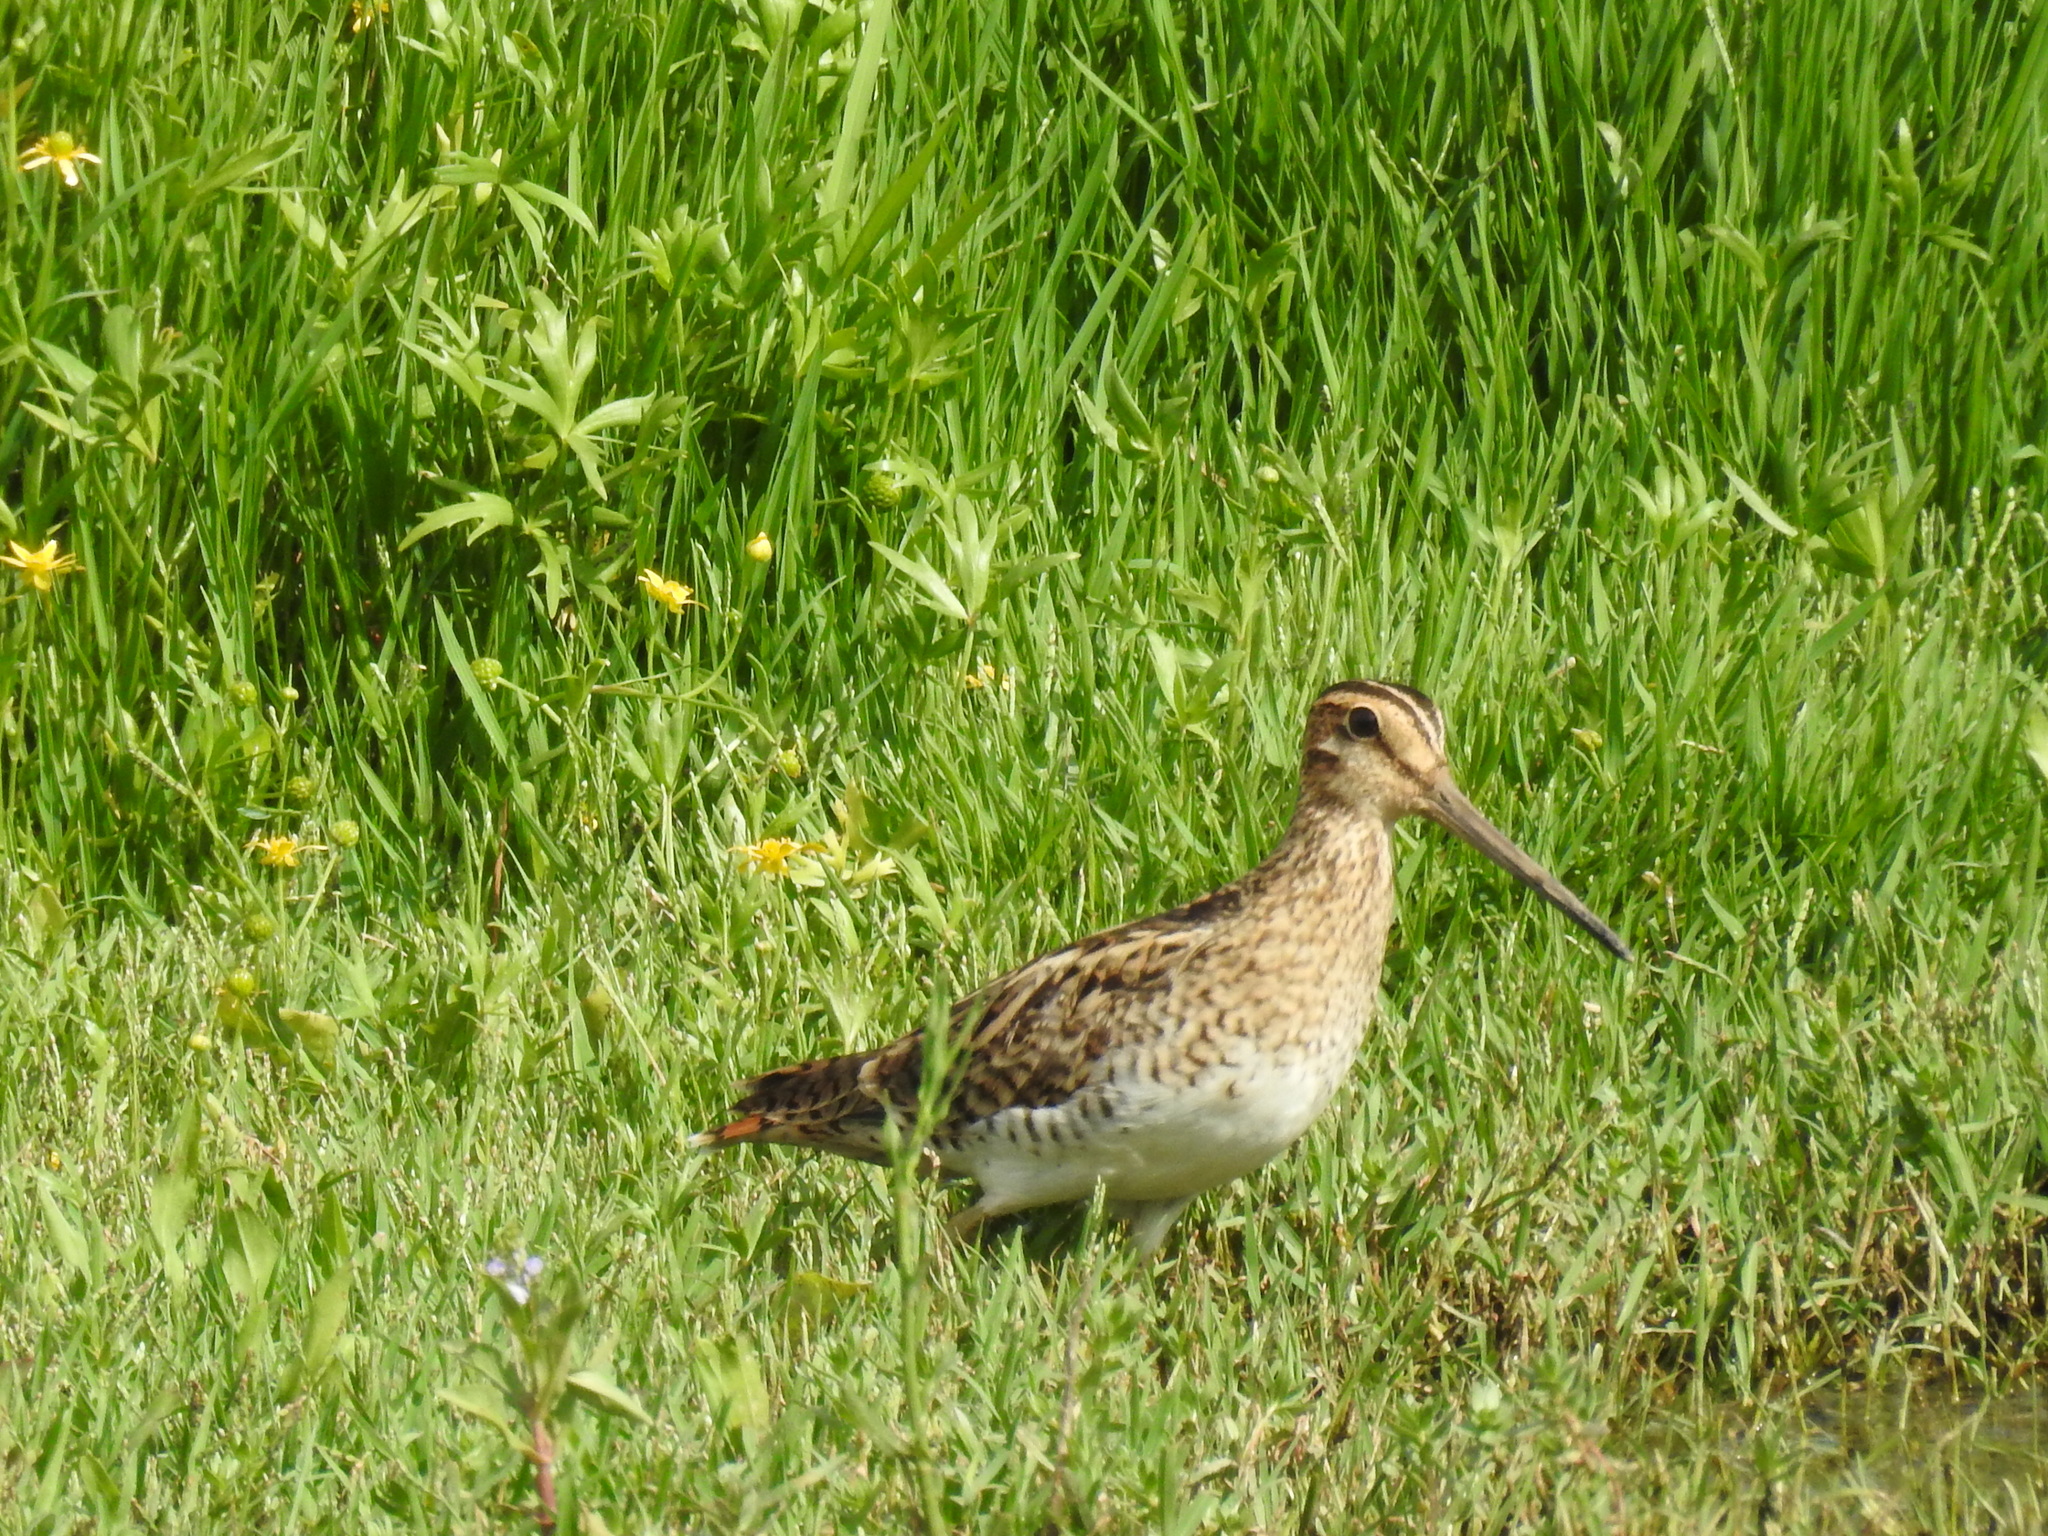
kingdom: Animalia
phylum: Chordata
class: Aves
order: Charadriiformes
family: Scolopacidae
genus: Gallinago
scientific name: Gallinago hardwickii
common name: Latham's snipe
